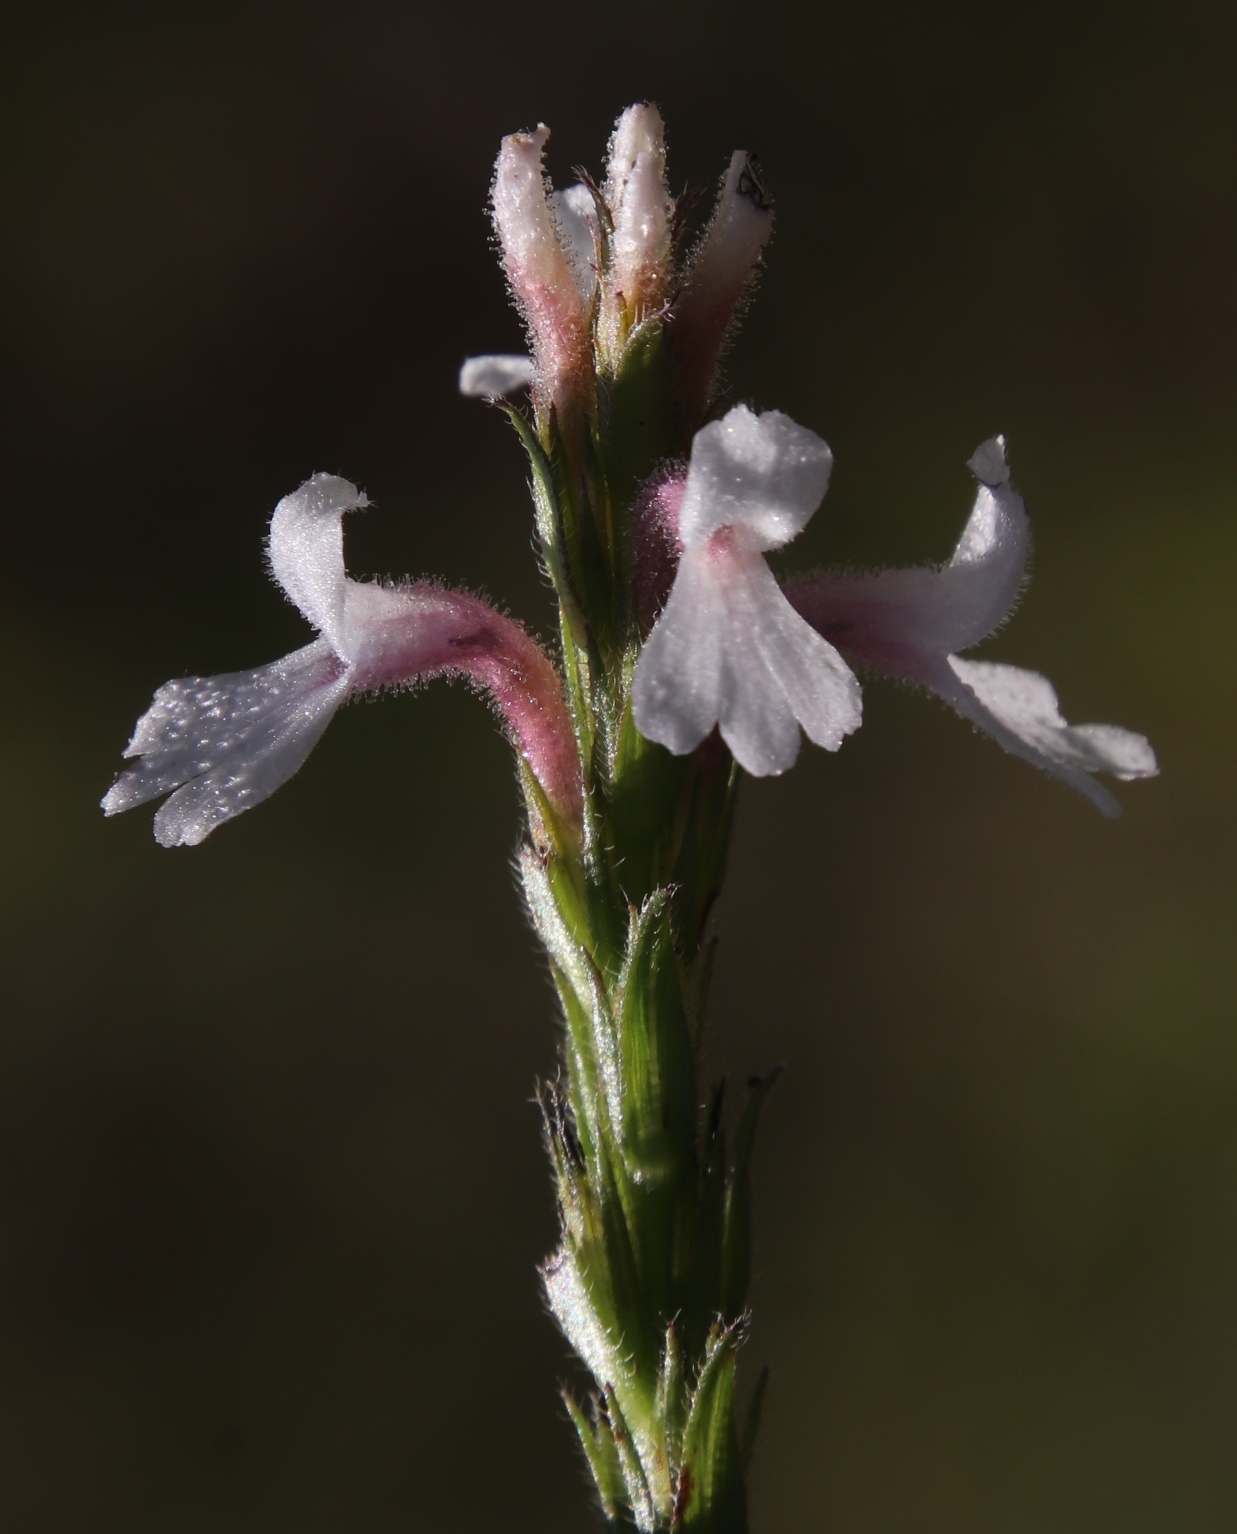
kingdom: Plantae
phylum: Tracheophyta
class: Magnoliopsida
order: Lamiales
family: Orobanchaceae
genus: Striga
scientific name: Striga bilabiata
